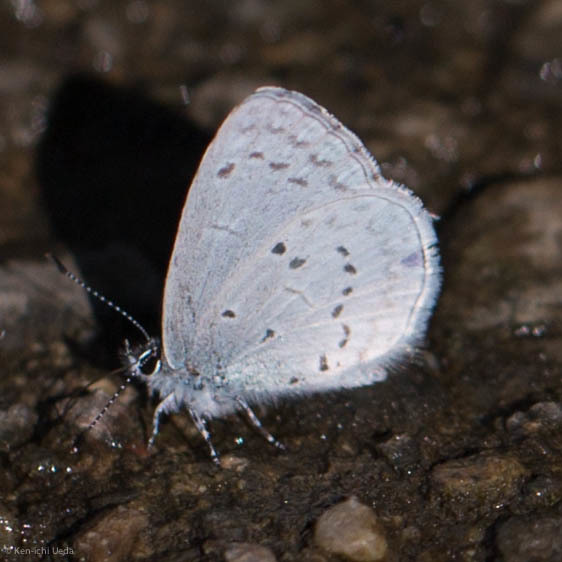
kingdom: Animalia
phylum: Arthropoda
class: Insecta
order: Lepidoptera
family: Lycaenidae
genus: Celastrina
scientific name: Celastrina ladon
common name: Spring azure
